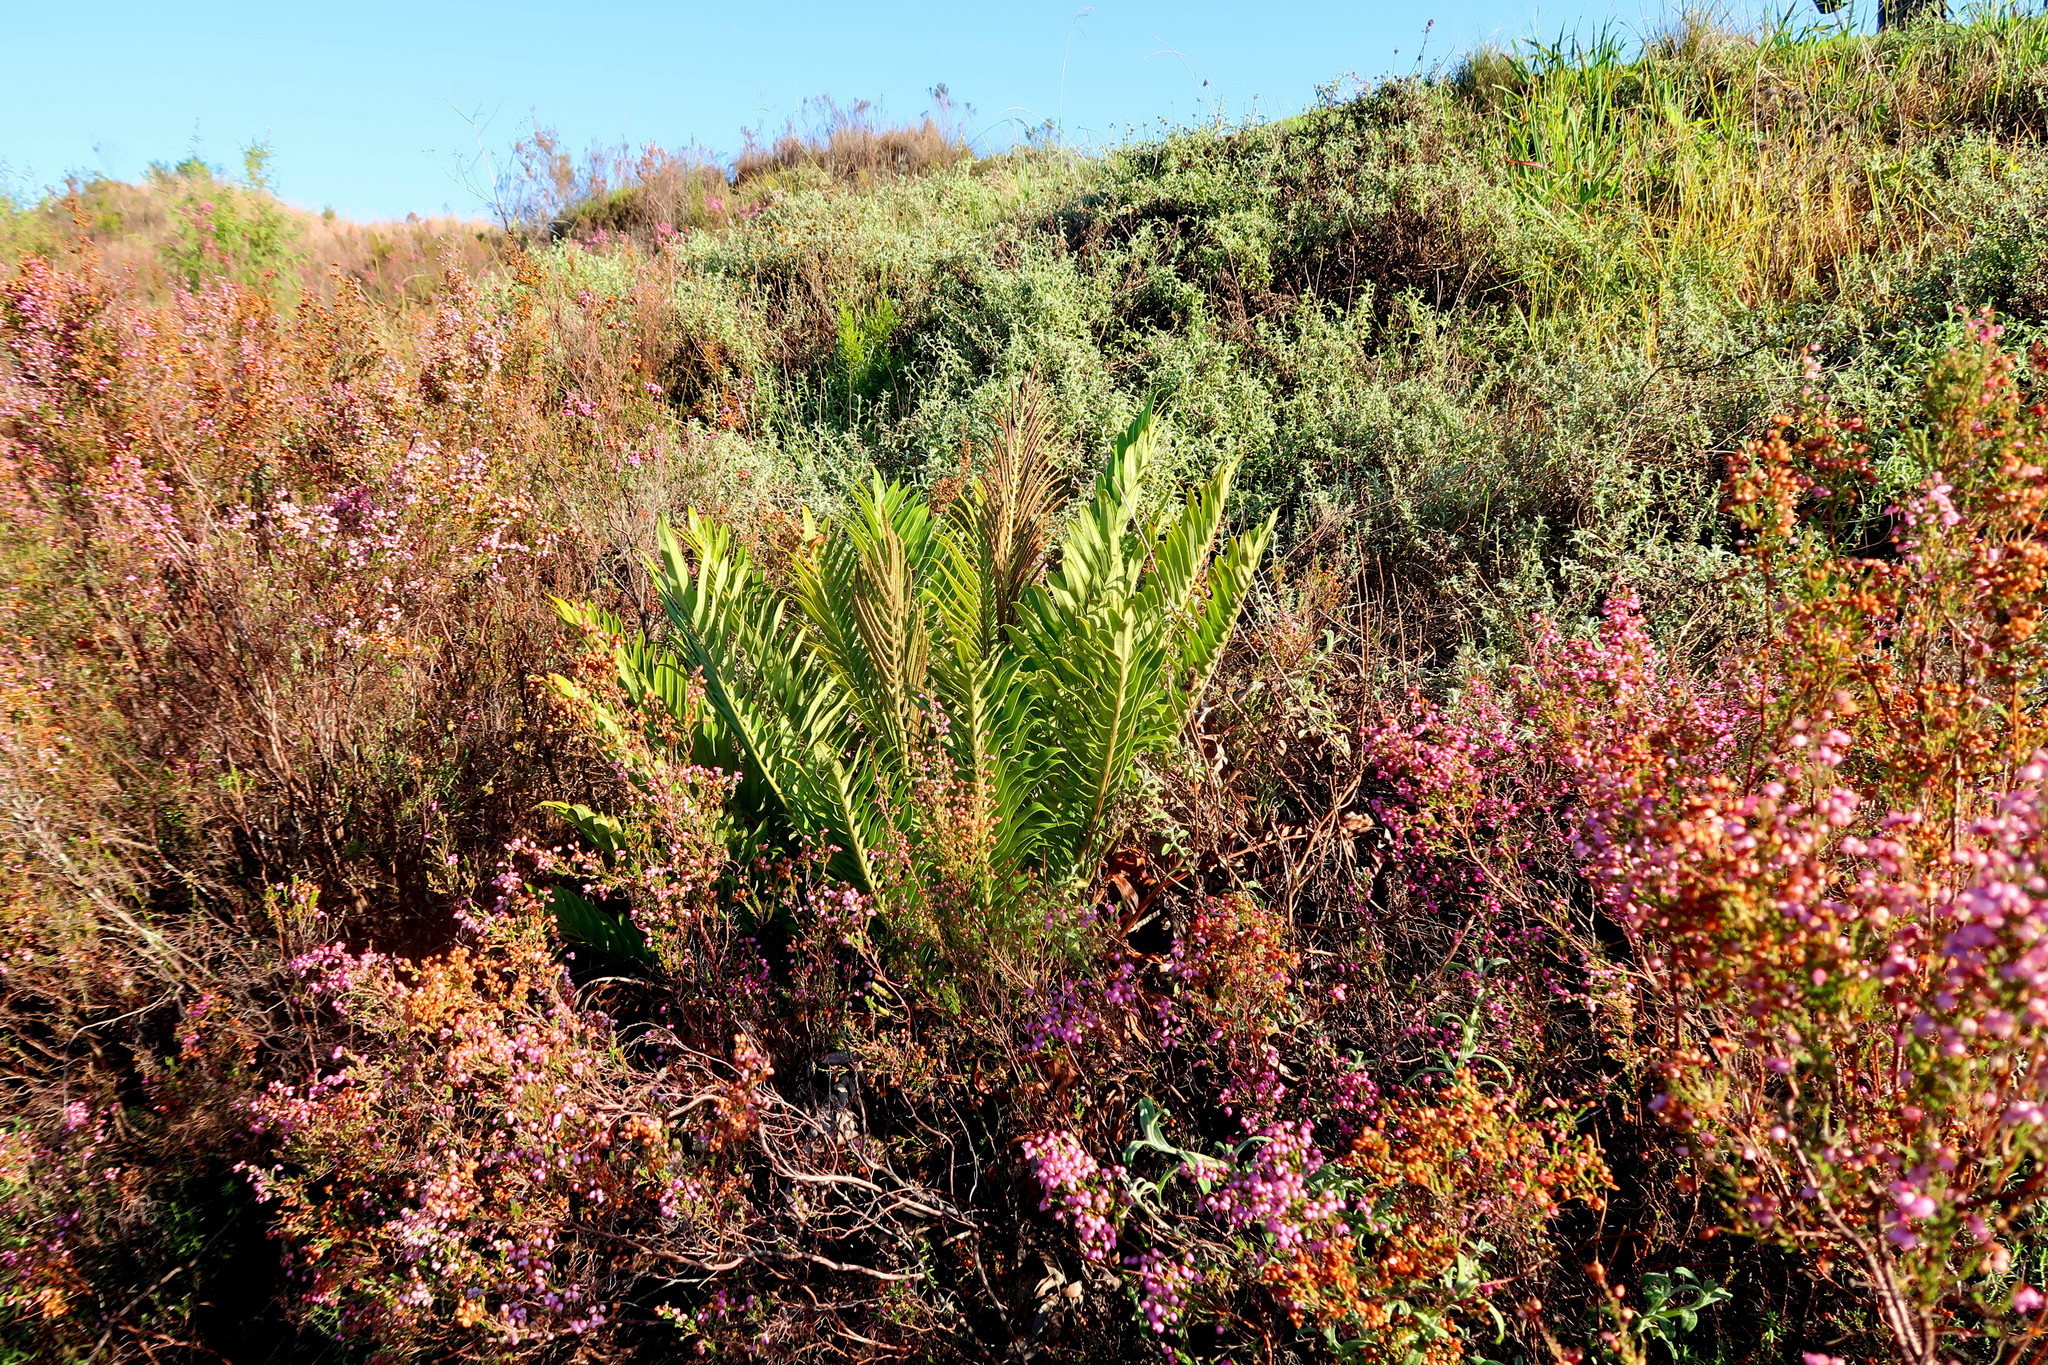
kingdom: Plantae
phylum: Tracheophyta
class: Polypodiopsida
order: Polypodiales
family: Blechnaceae
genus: Lomariocycas
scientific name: Lomariocycas tabularis
